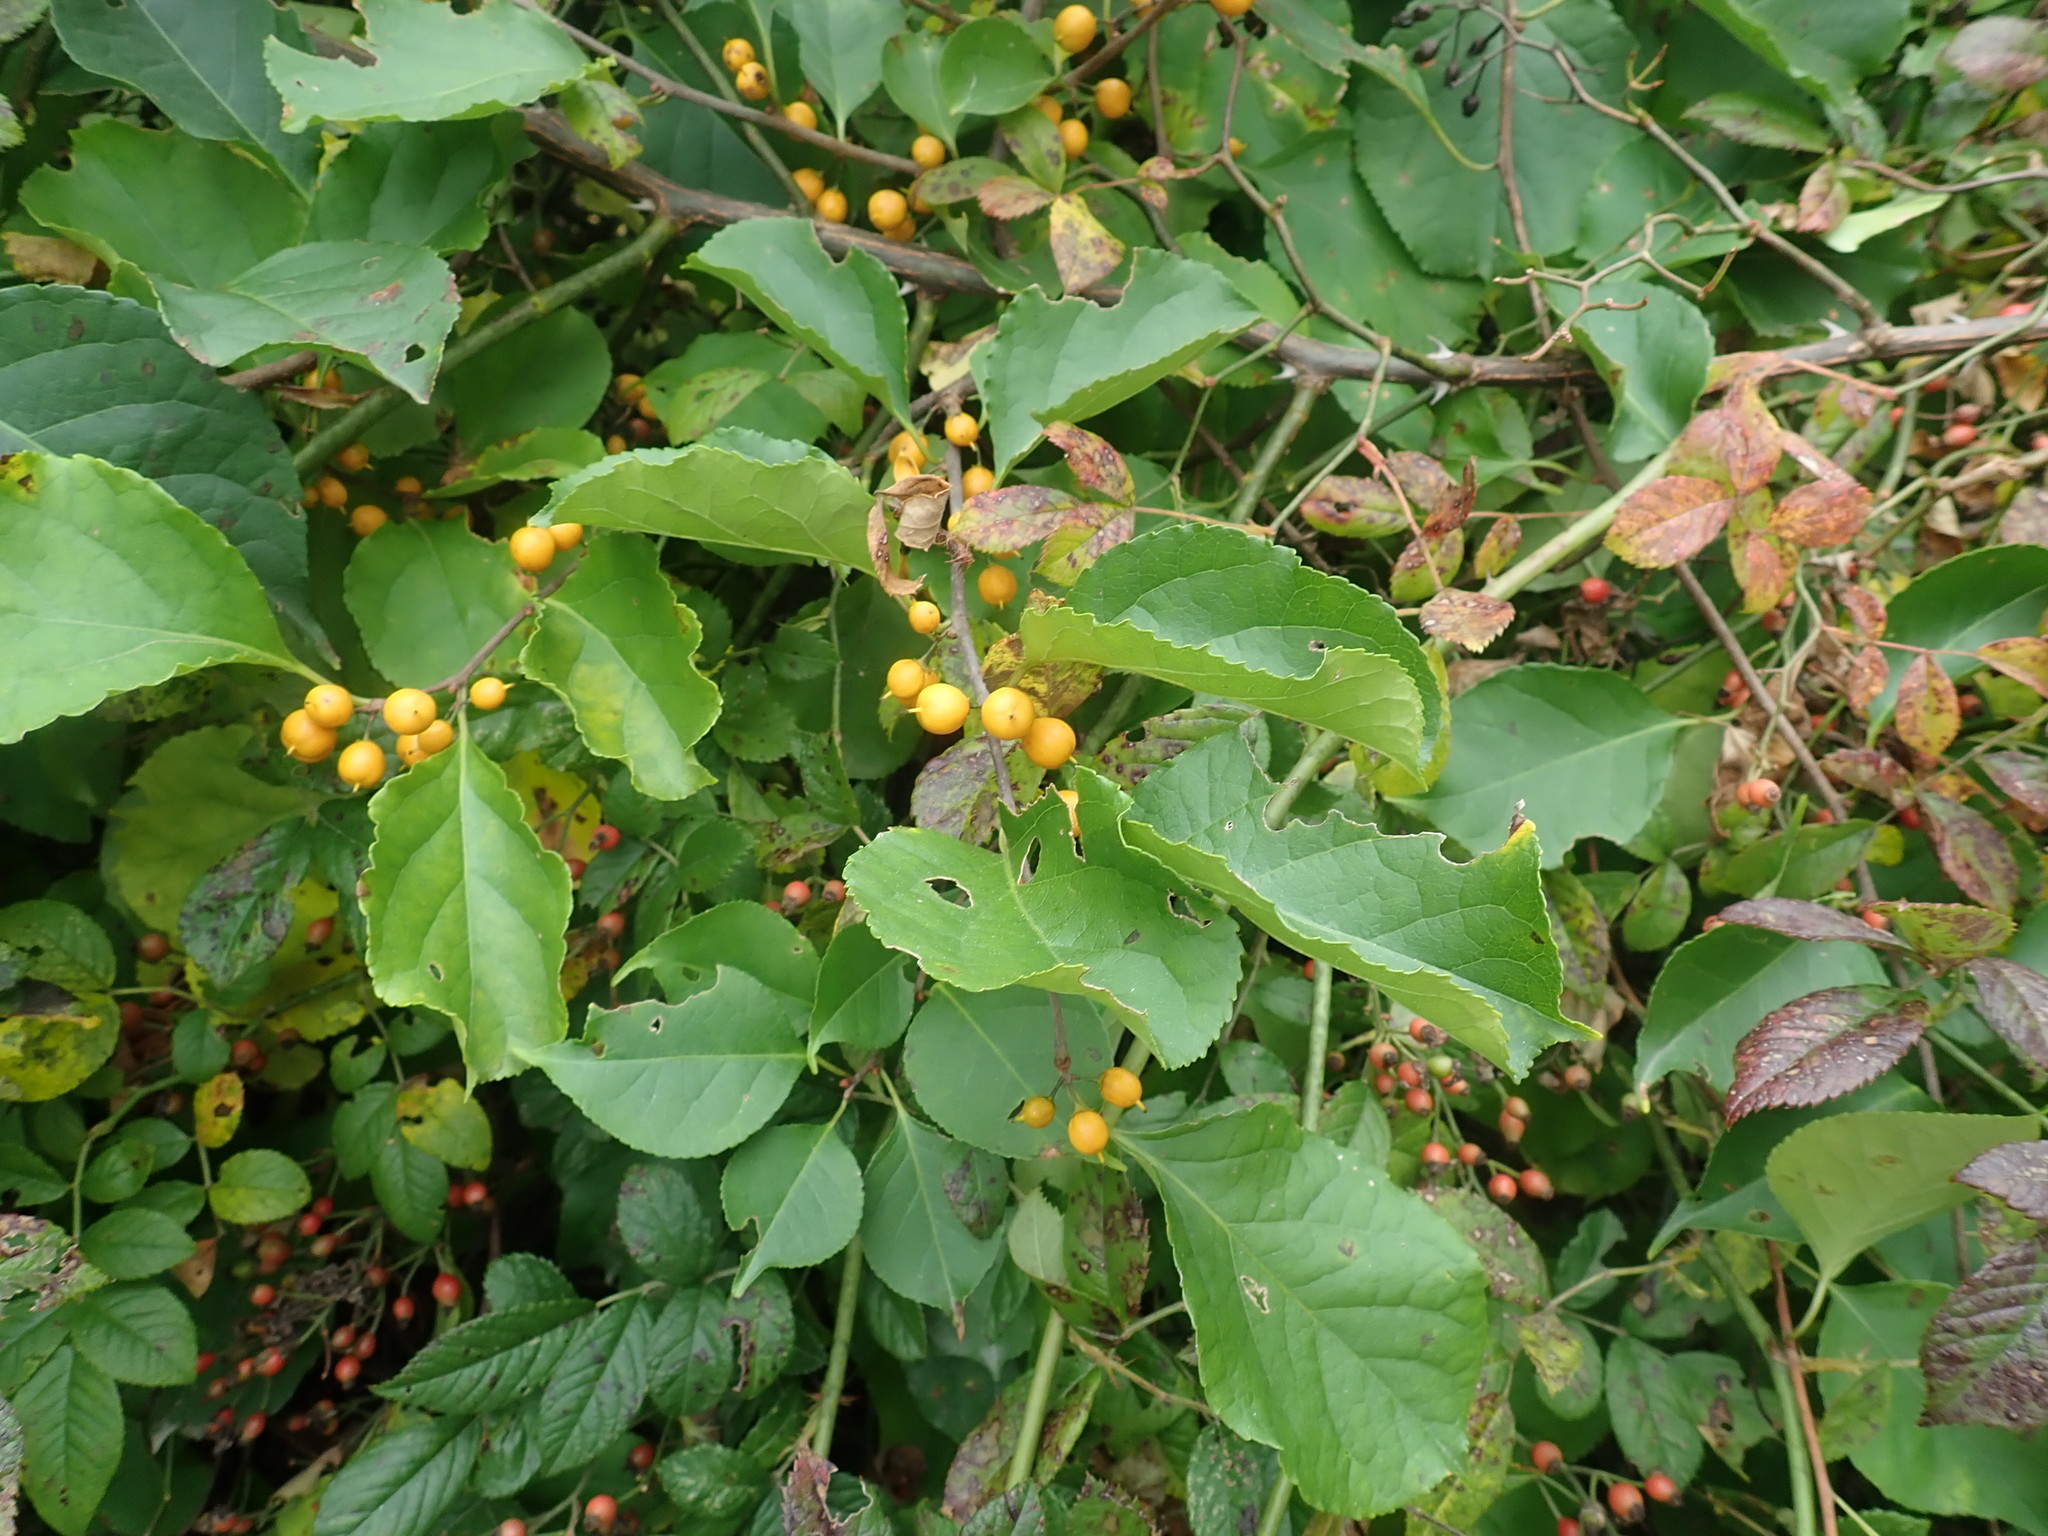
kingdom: Plantae
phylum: Tracheophyta
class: Magnoliopsida
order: Celastrales
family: Celastraceae
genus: Celastrus
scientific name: Celastrus orbiculatus
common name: Oriental bittersweet
